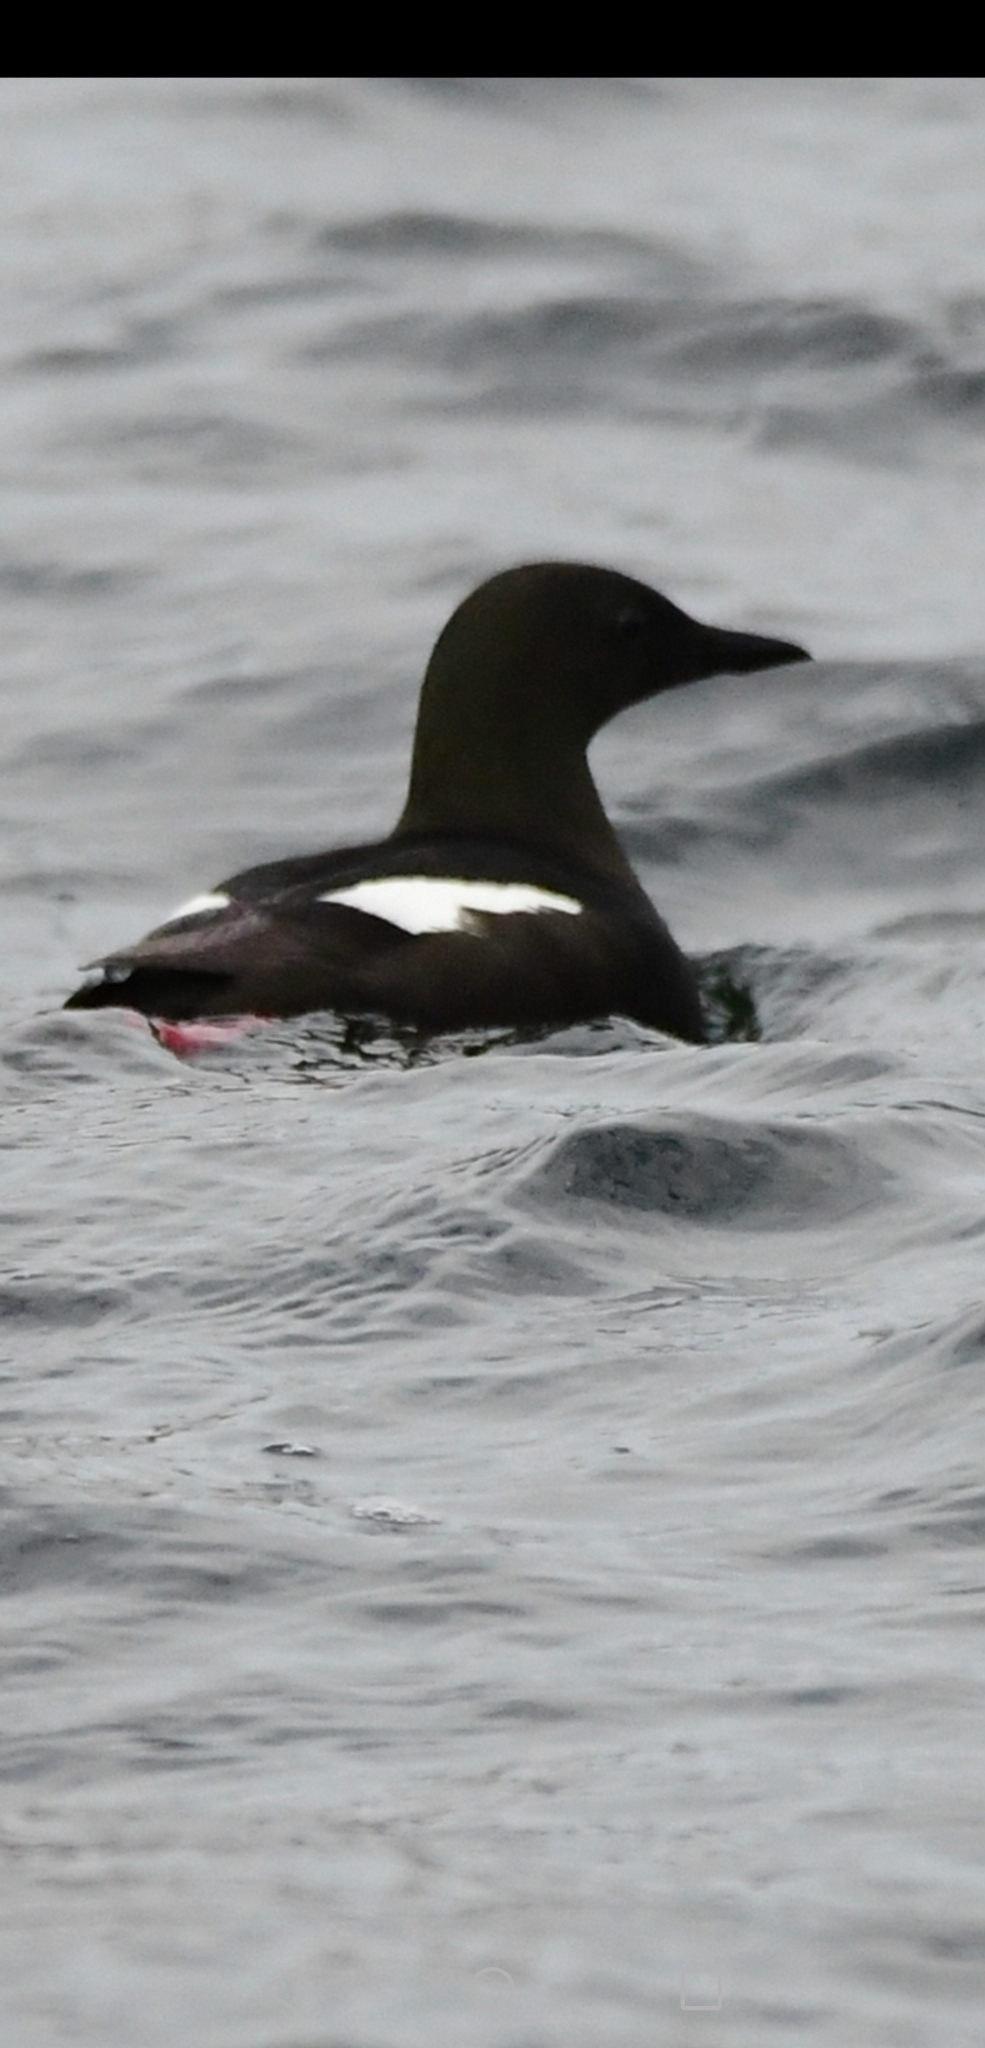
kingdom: Animalia
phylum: Chordata
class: Aves
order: Charadriiformes
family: Alcidae
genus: Cepphus
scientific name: Cepphus grylle
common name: Black guillemot
